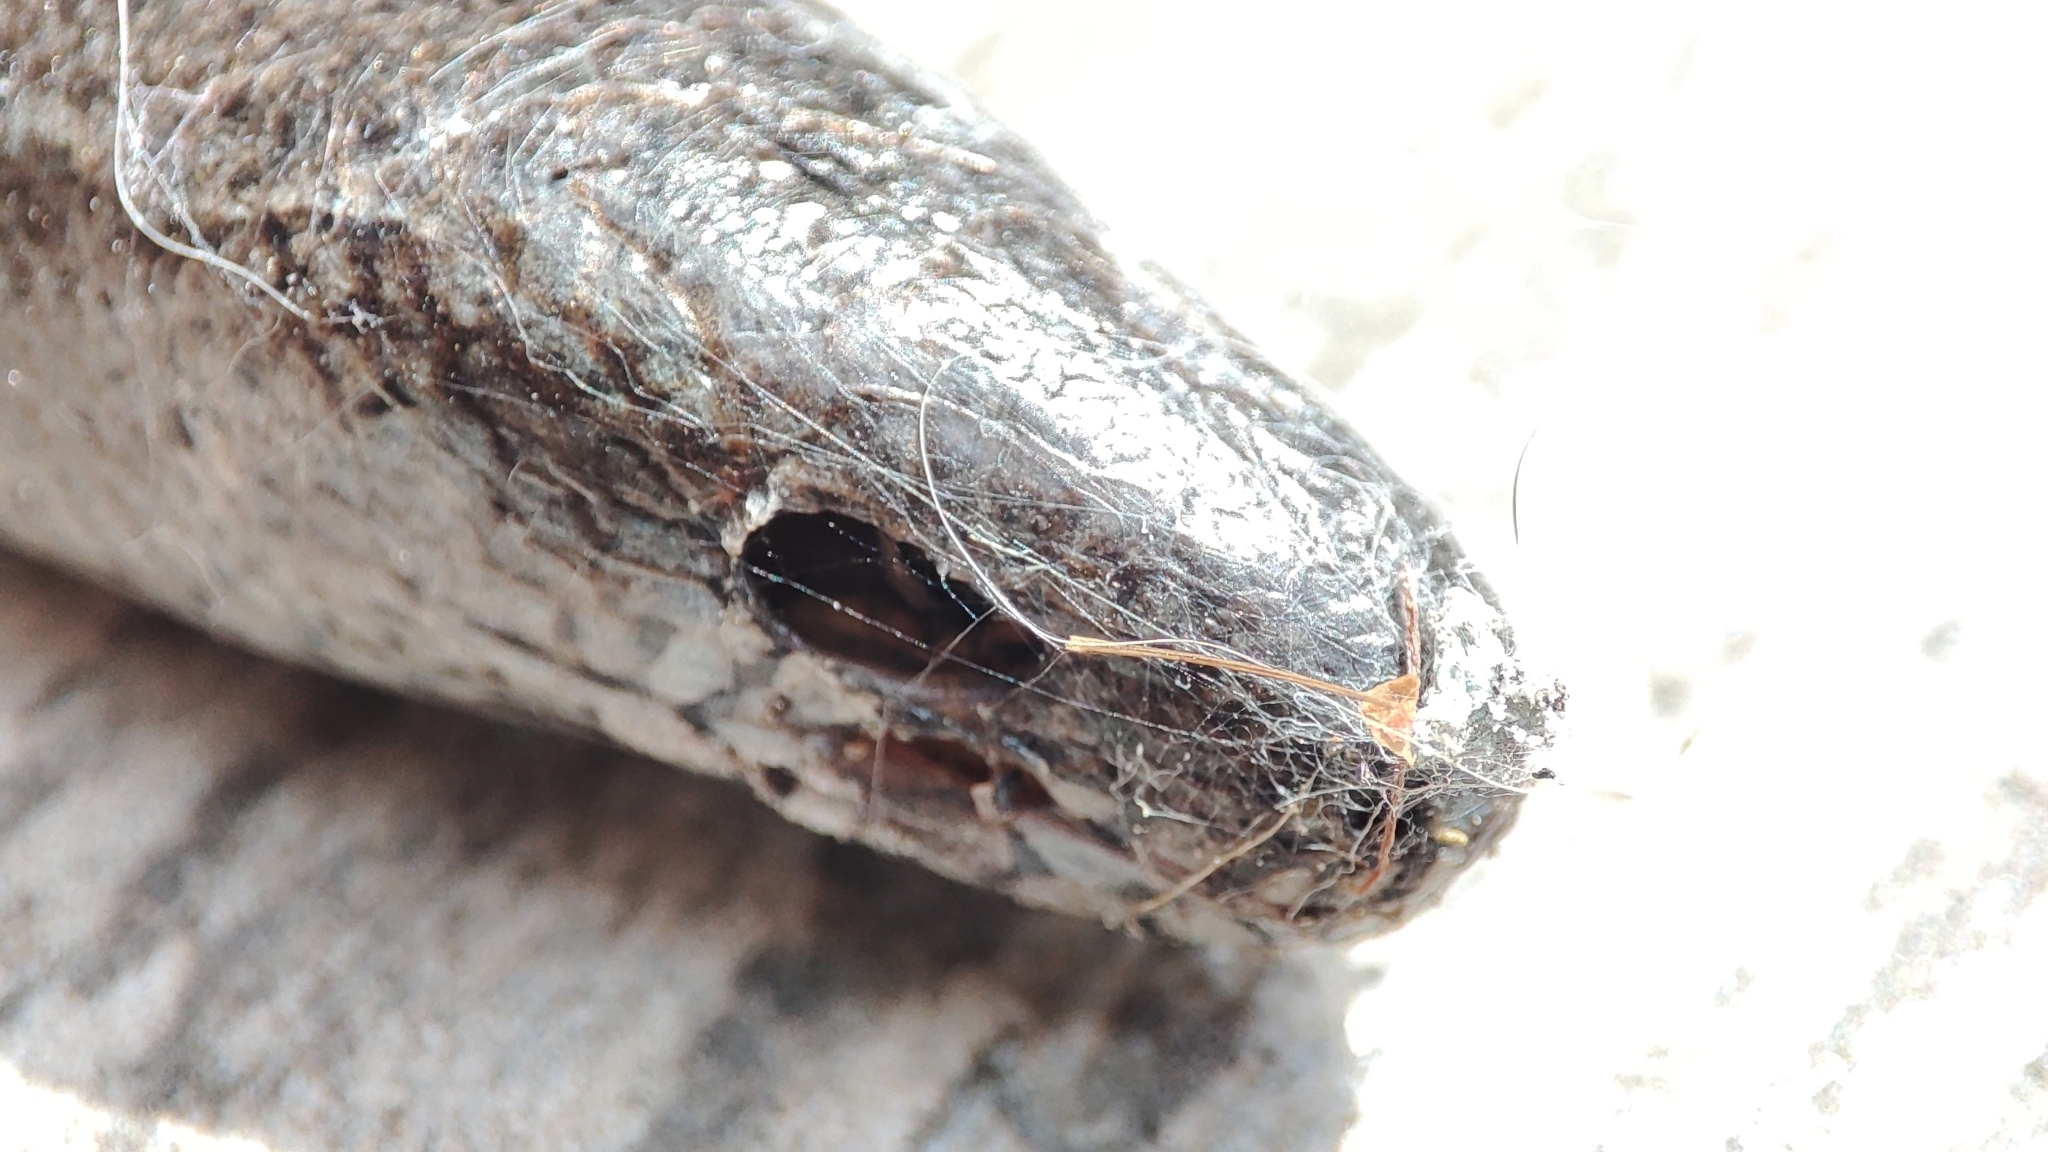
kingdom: Animalia
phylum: Chordata
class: Squamata
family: Anguidae
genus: Anguis
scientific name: Anguis fragilis
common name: Slow worm
